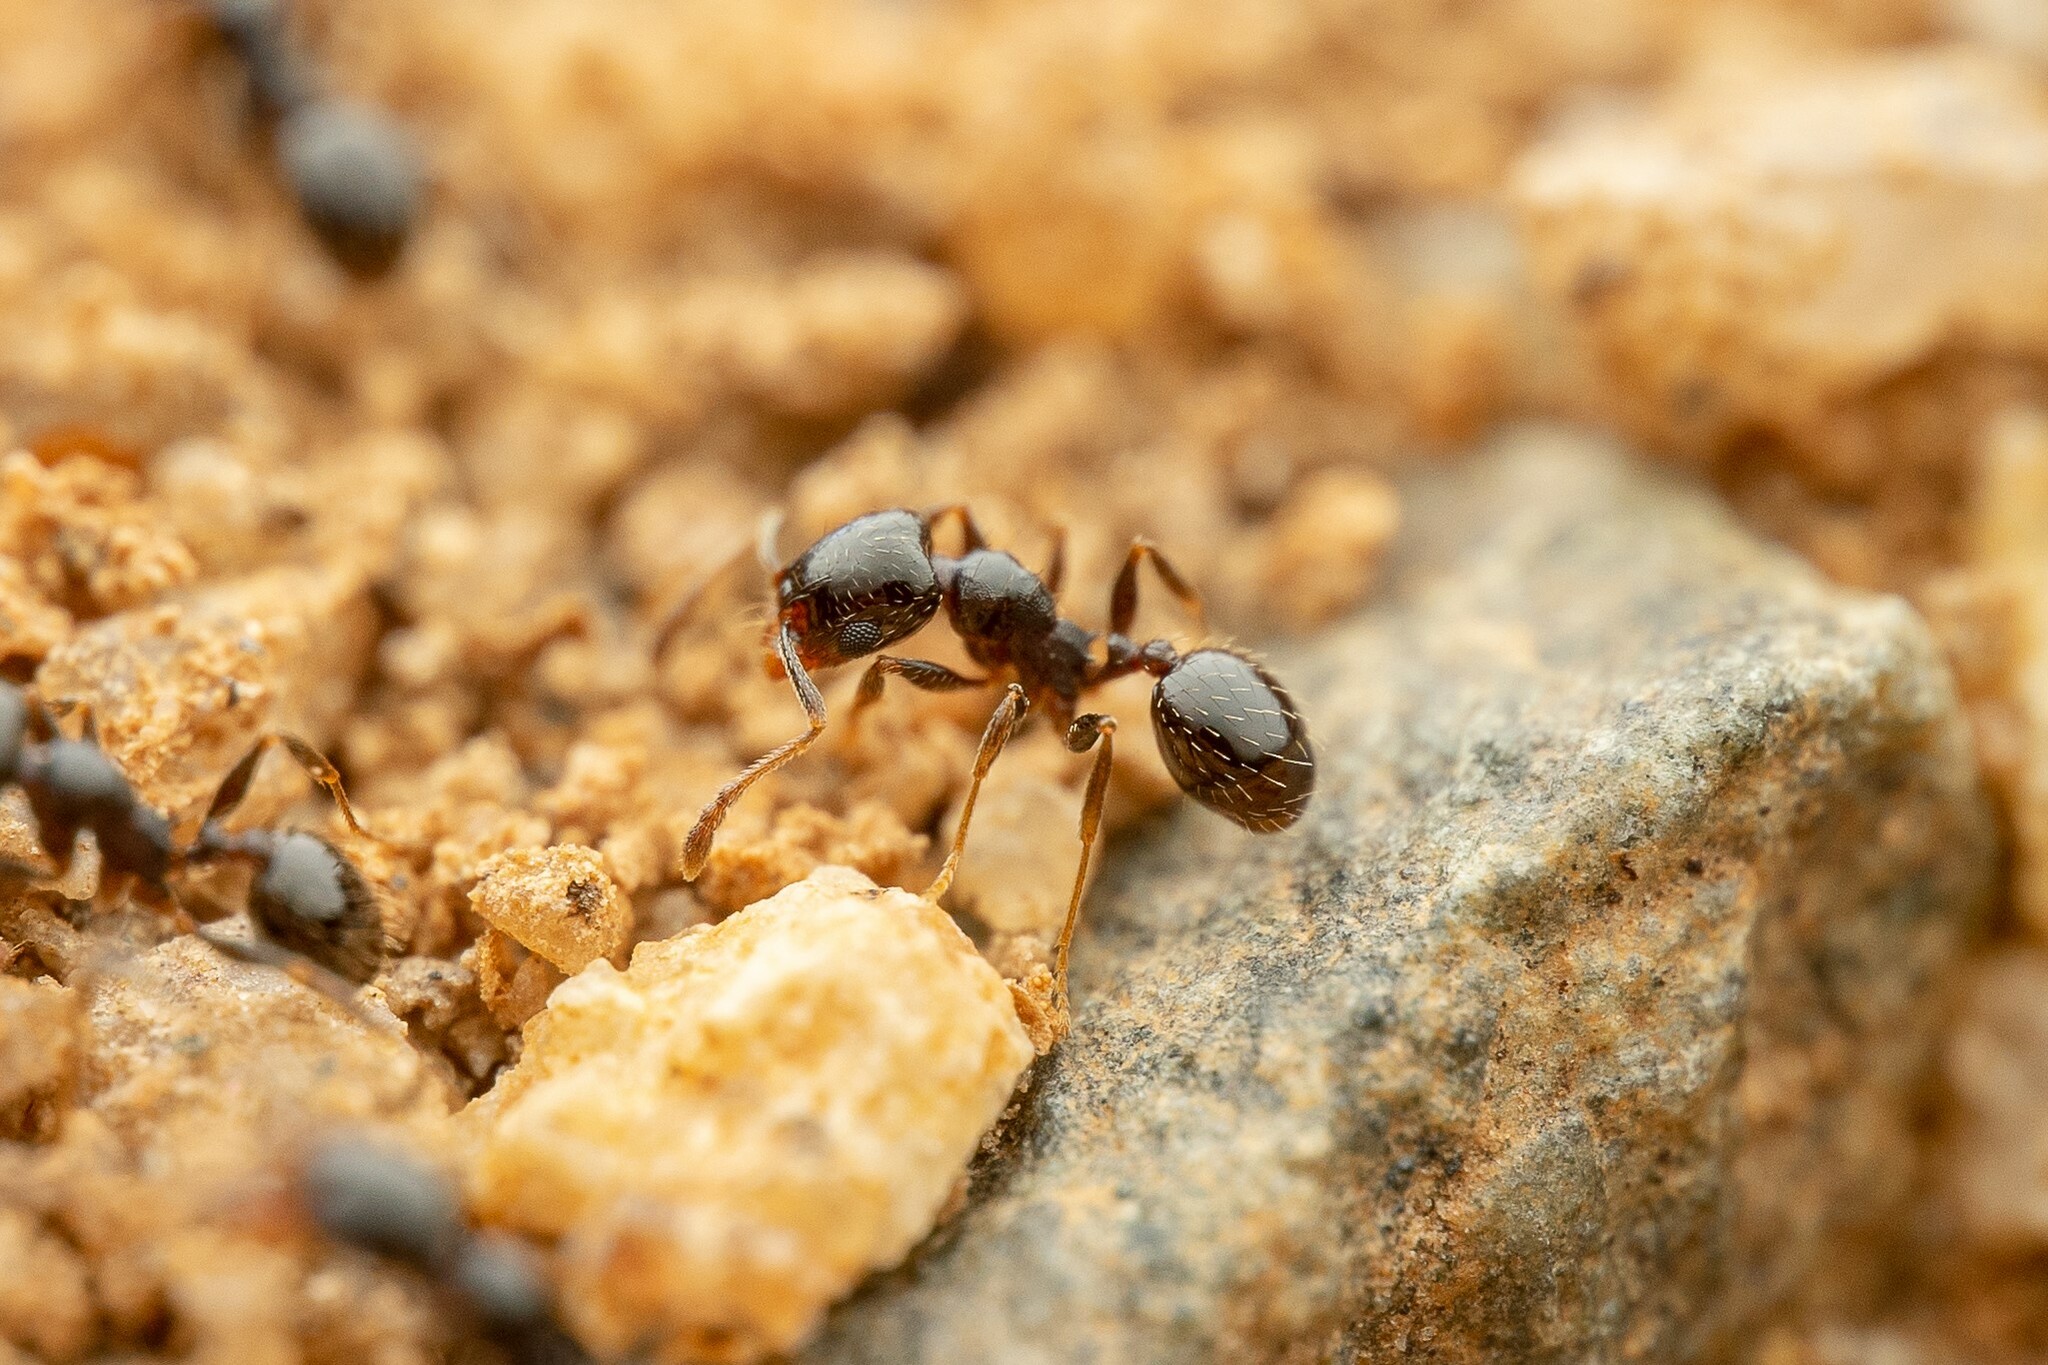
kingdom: Animalia
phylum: Arthropoda
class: Insecta
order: Hymenoptera
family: Formicidae
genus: Pheidole
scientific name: Pheidole rugulosa
